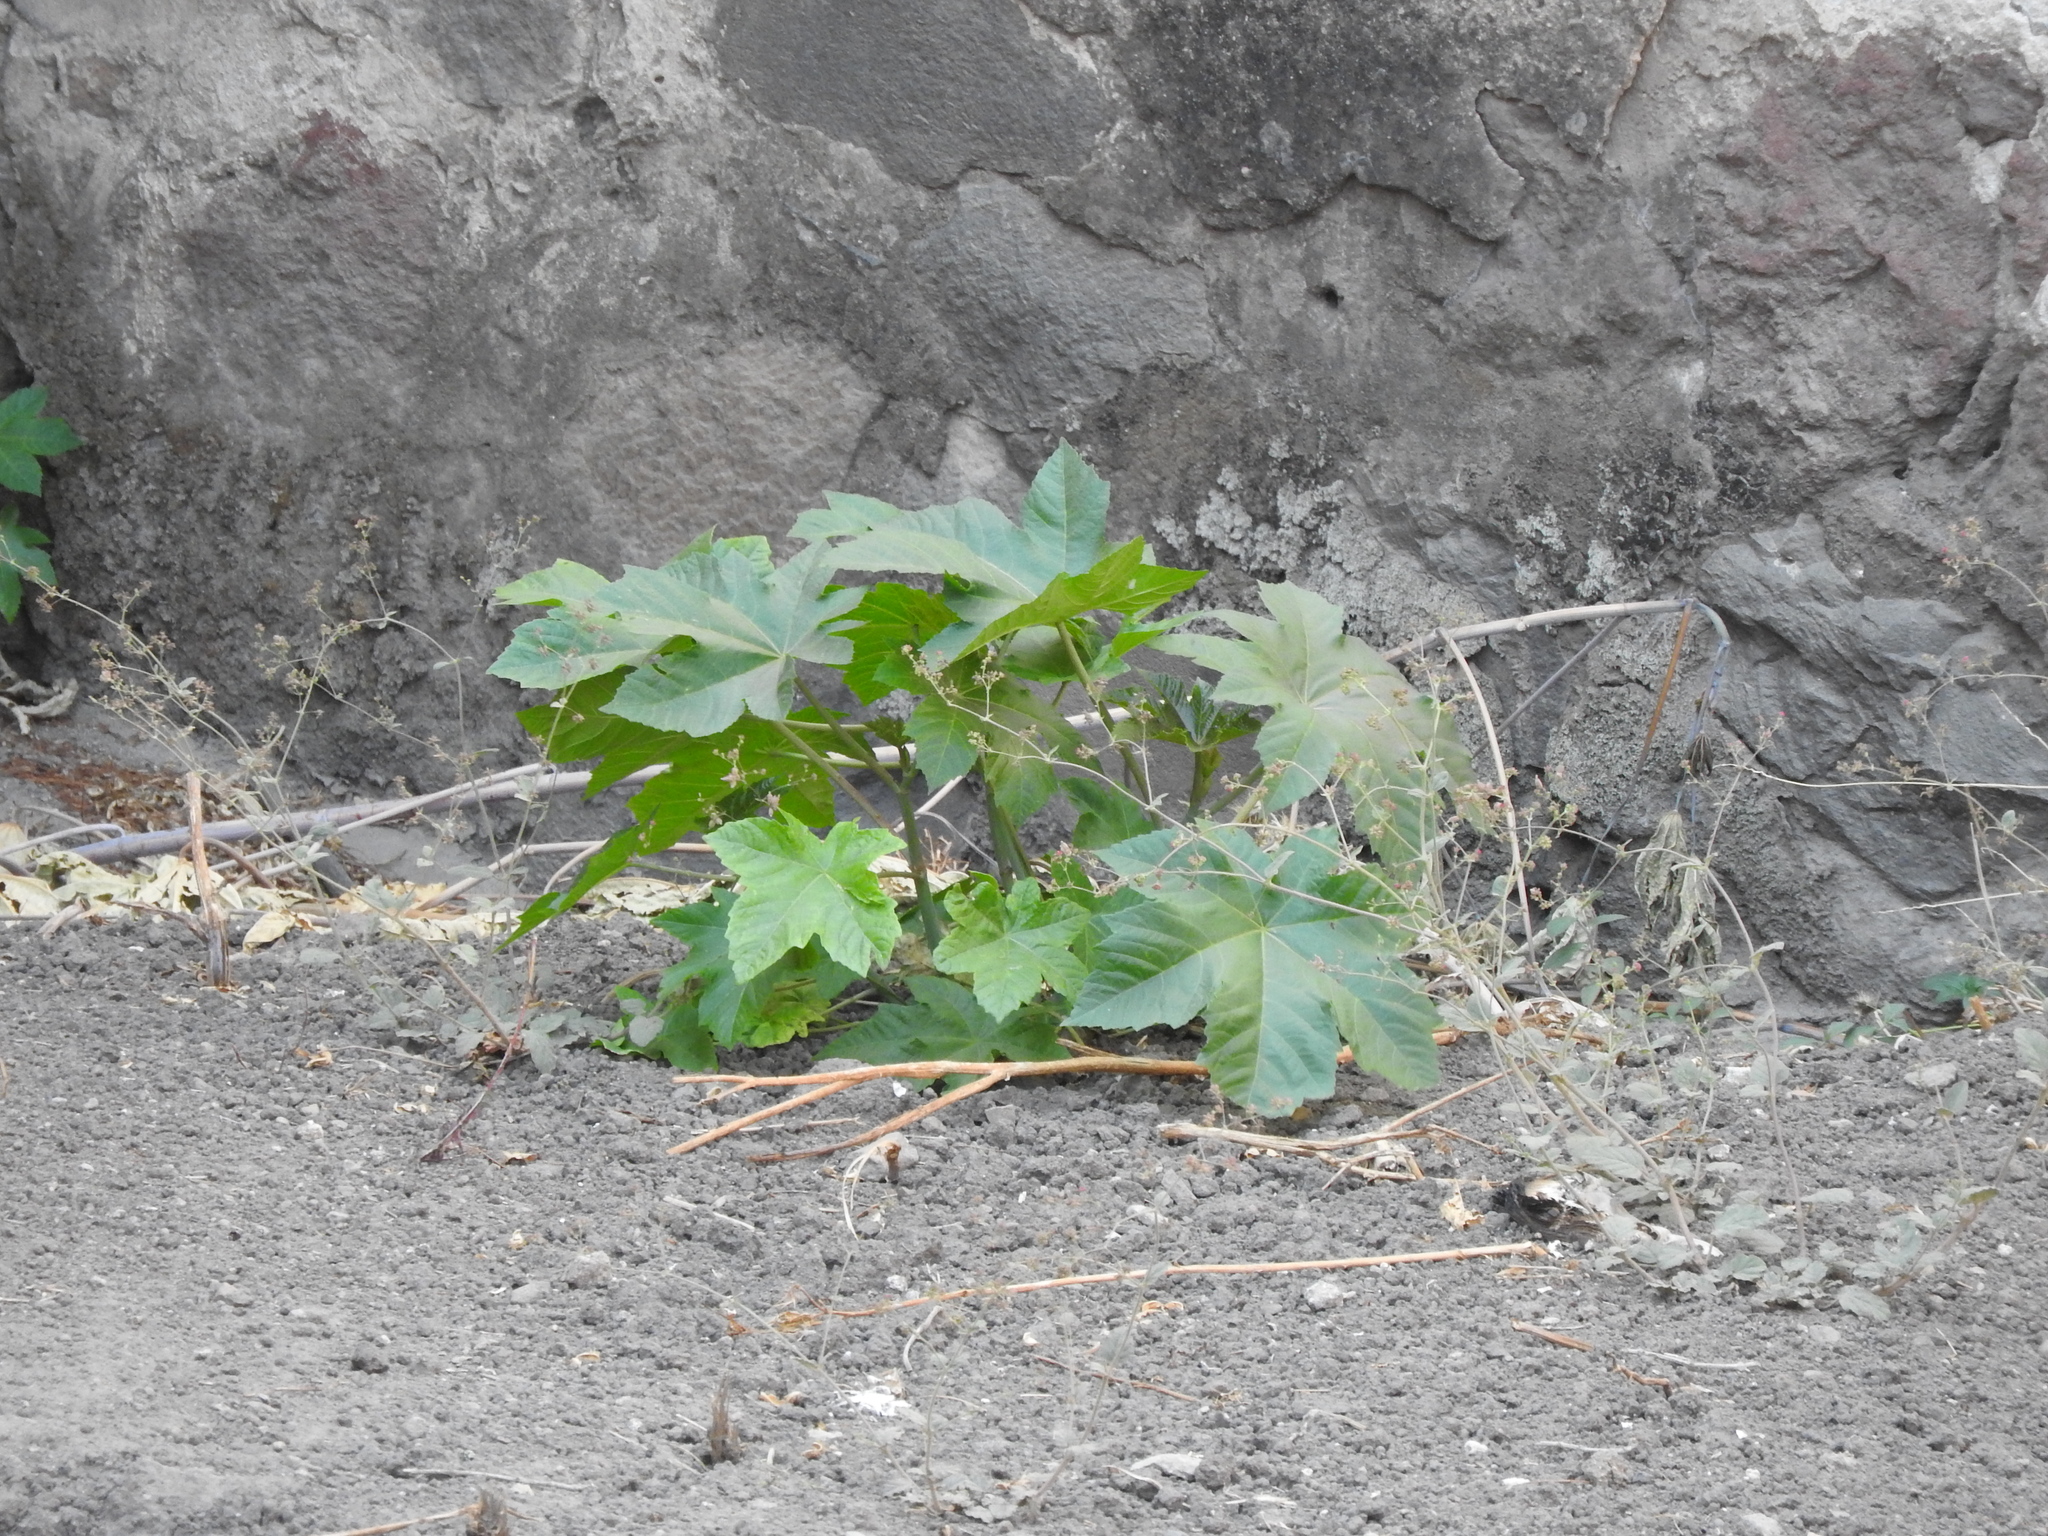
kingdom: Plantae
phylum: Tracheophyta
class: Magnoliopsida
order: Malpighiales
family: Euphorbiaceae
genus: Ricinus
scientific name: Ricinus communis
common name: Castor-oil-plant
